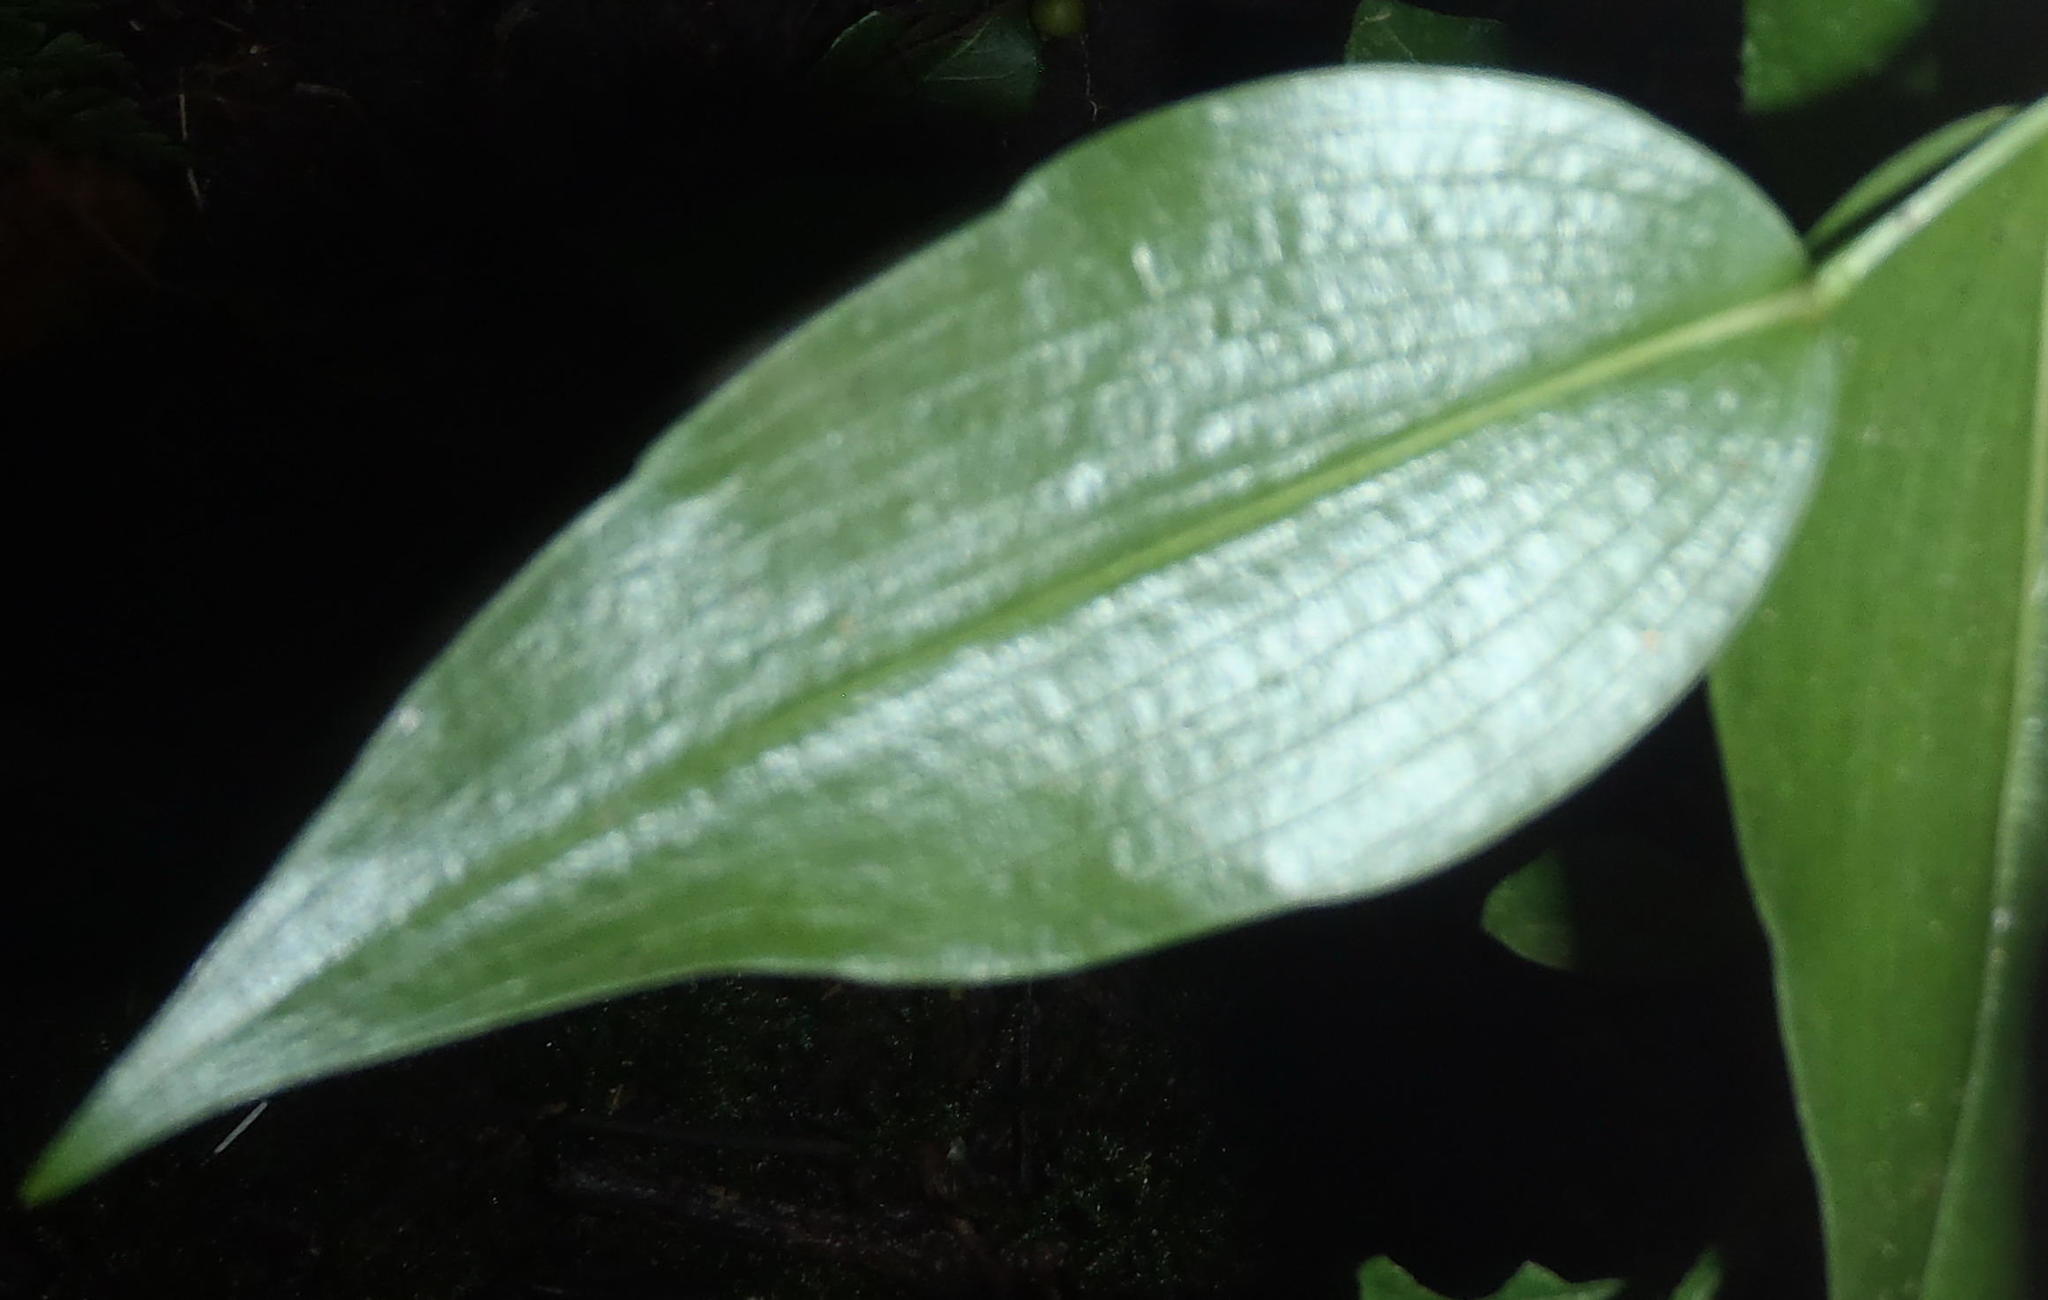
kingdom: Plantae
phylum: Tracheophyta
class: Liliopsida
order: Asparagales
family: Asparagaceae
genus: Behnia
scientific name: Behnia reticulata
